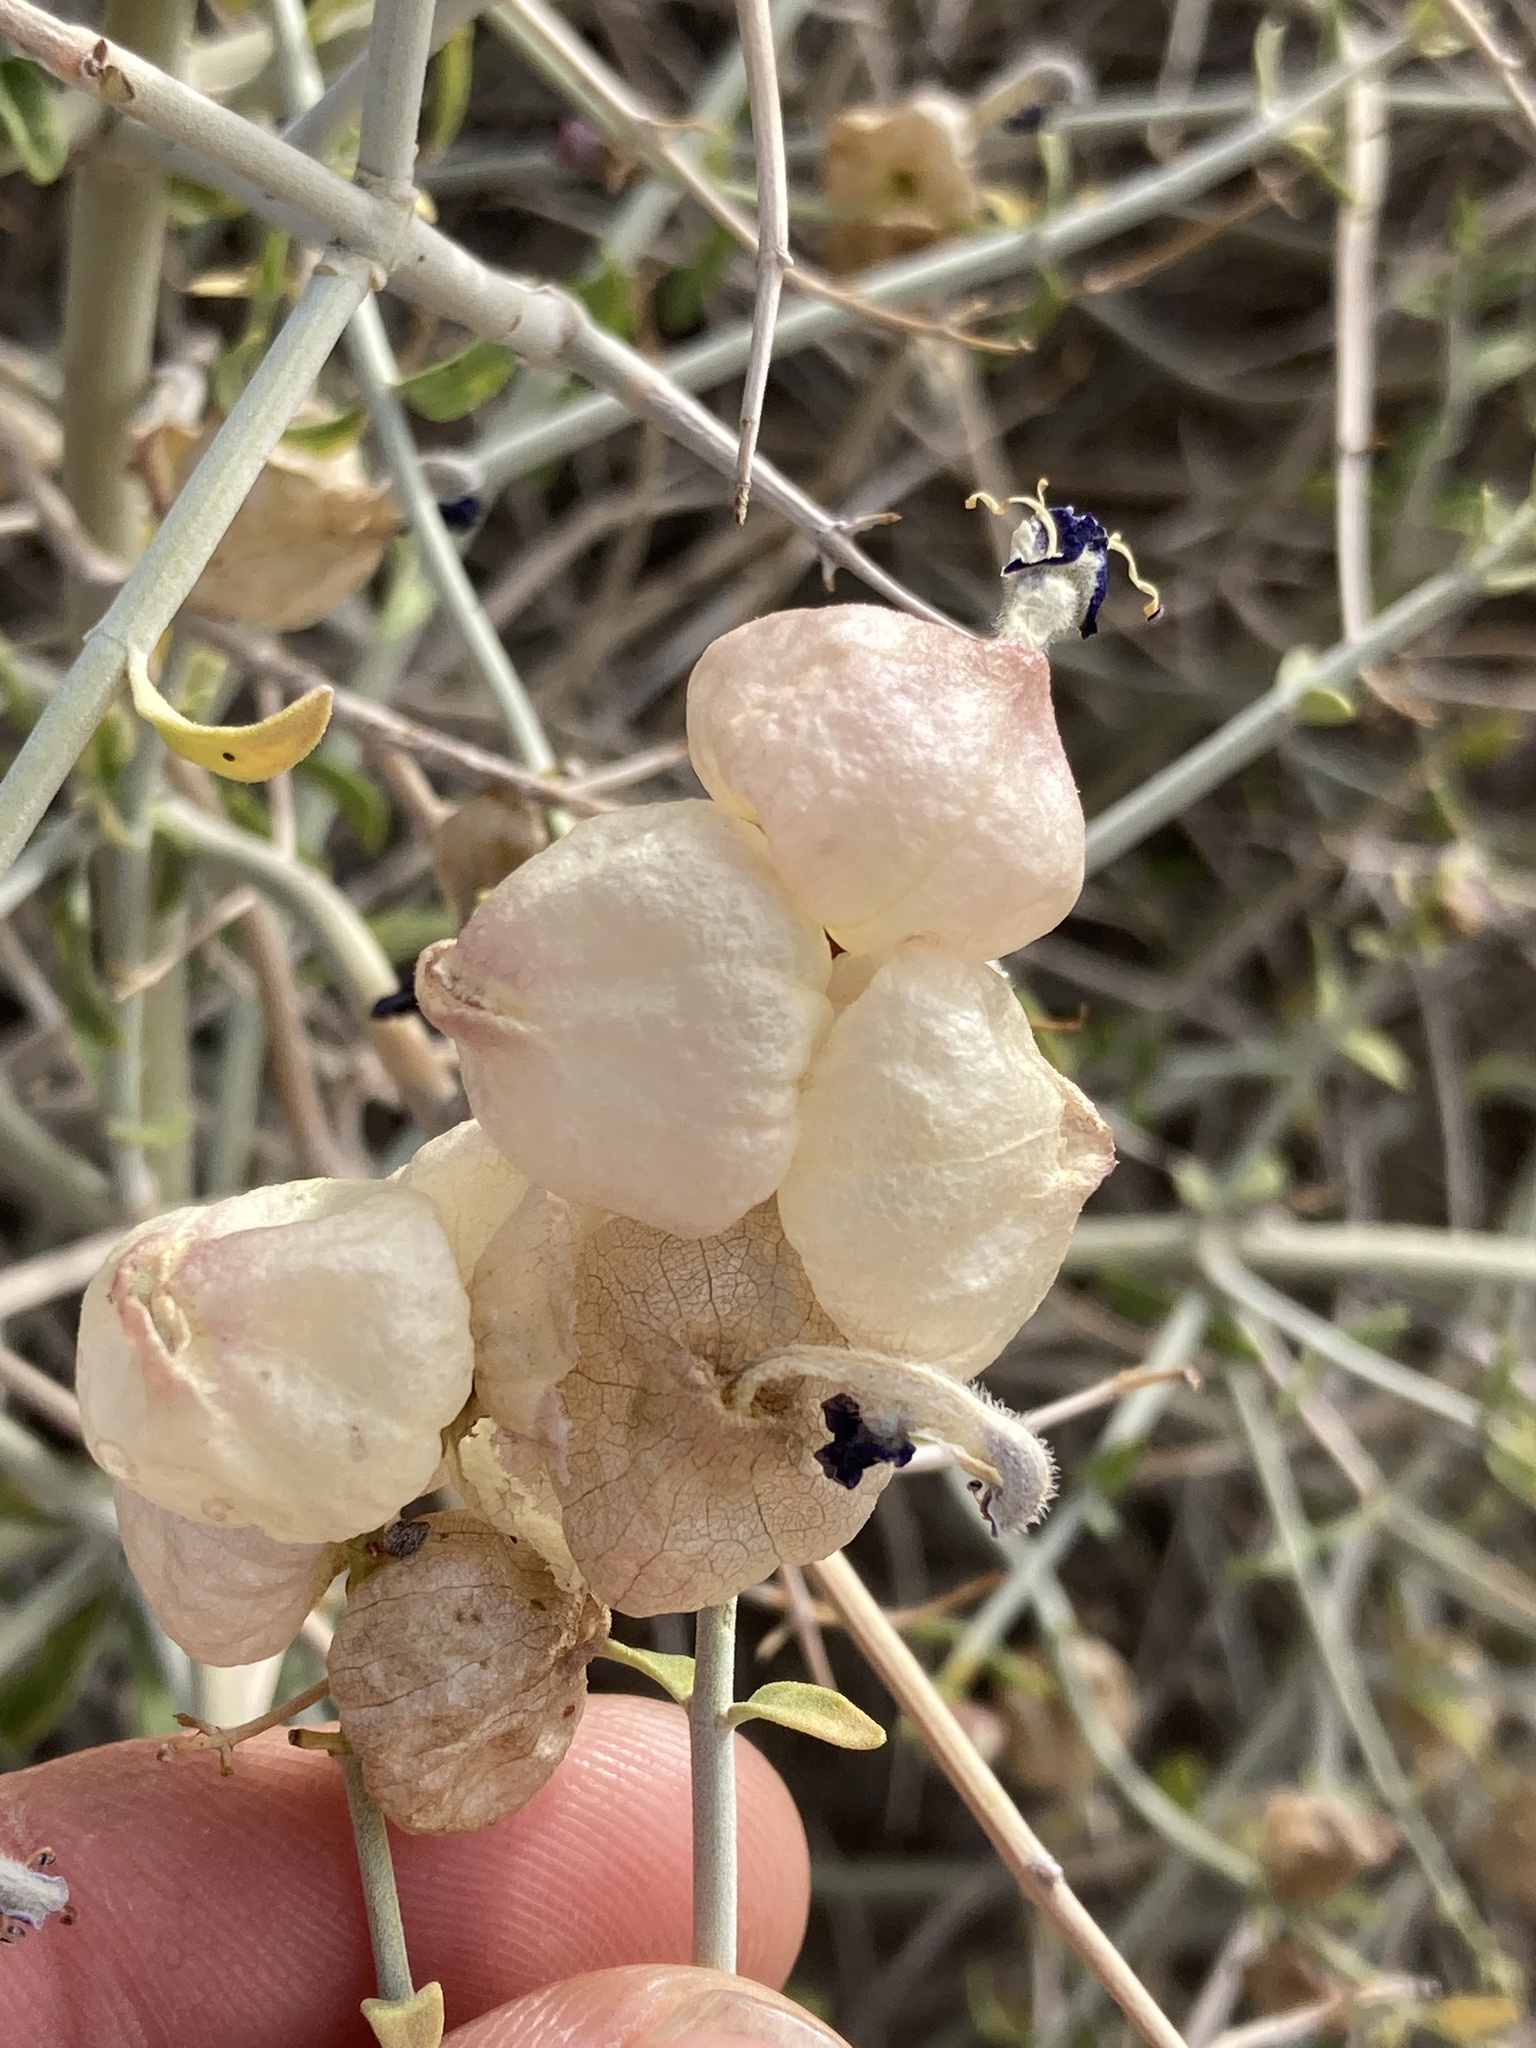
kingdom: Plantae
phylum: Tracheophyta
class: Magnoliopsida
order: Lamiales
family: Lamiaceae
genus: Scutellaria
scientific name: Scutellaria mexicana
